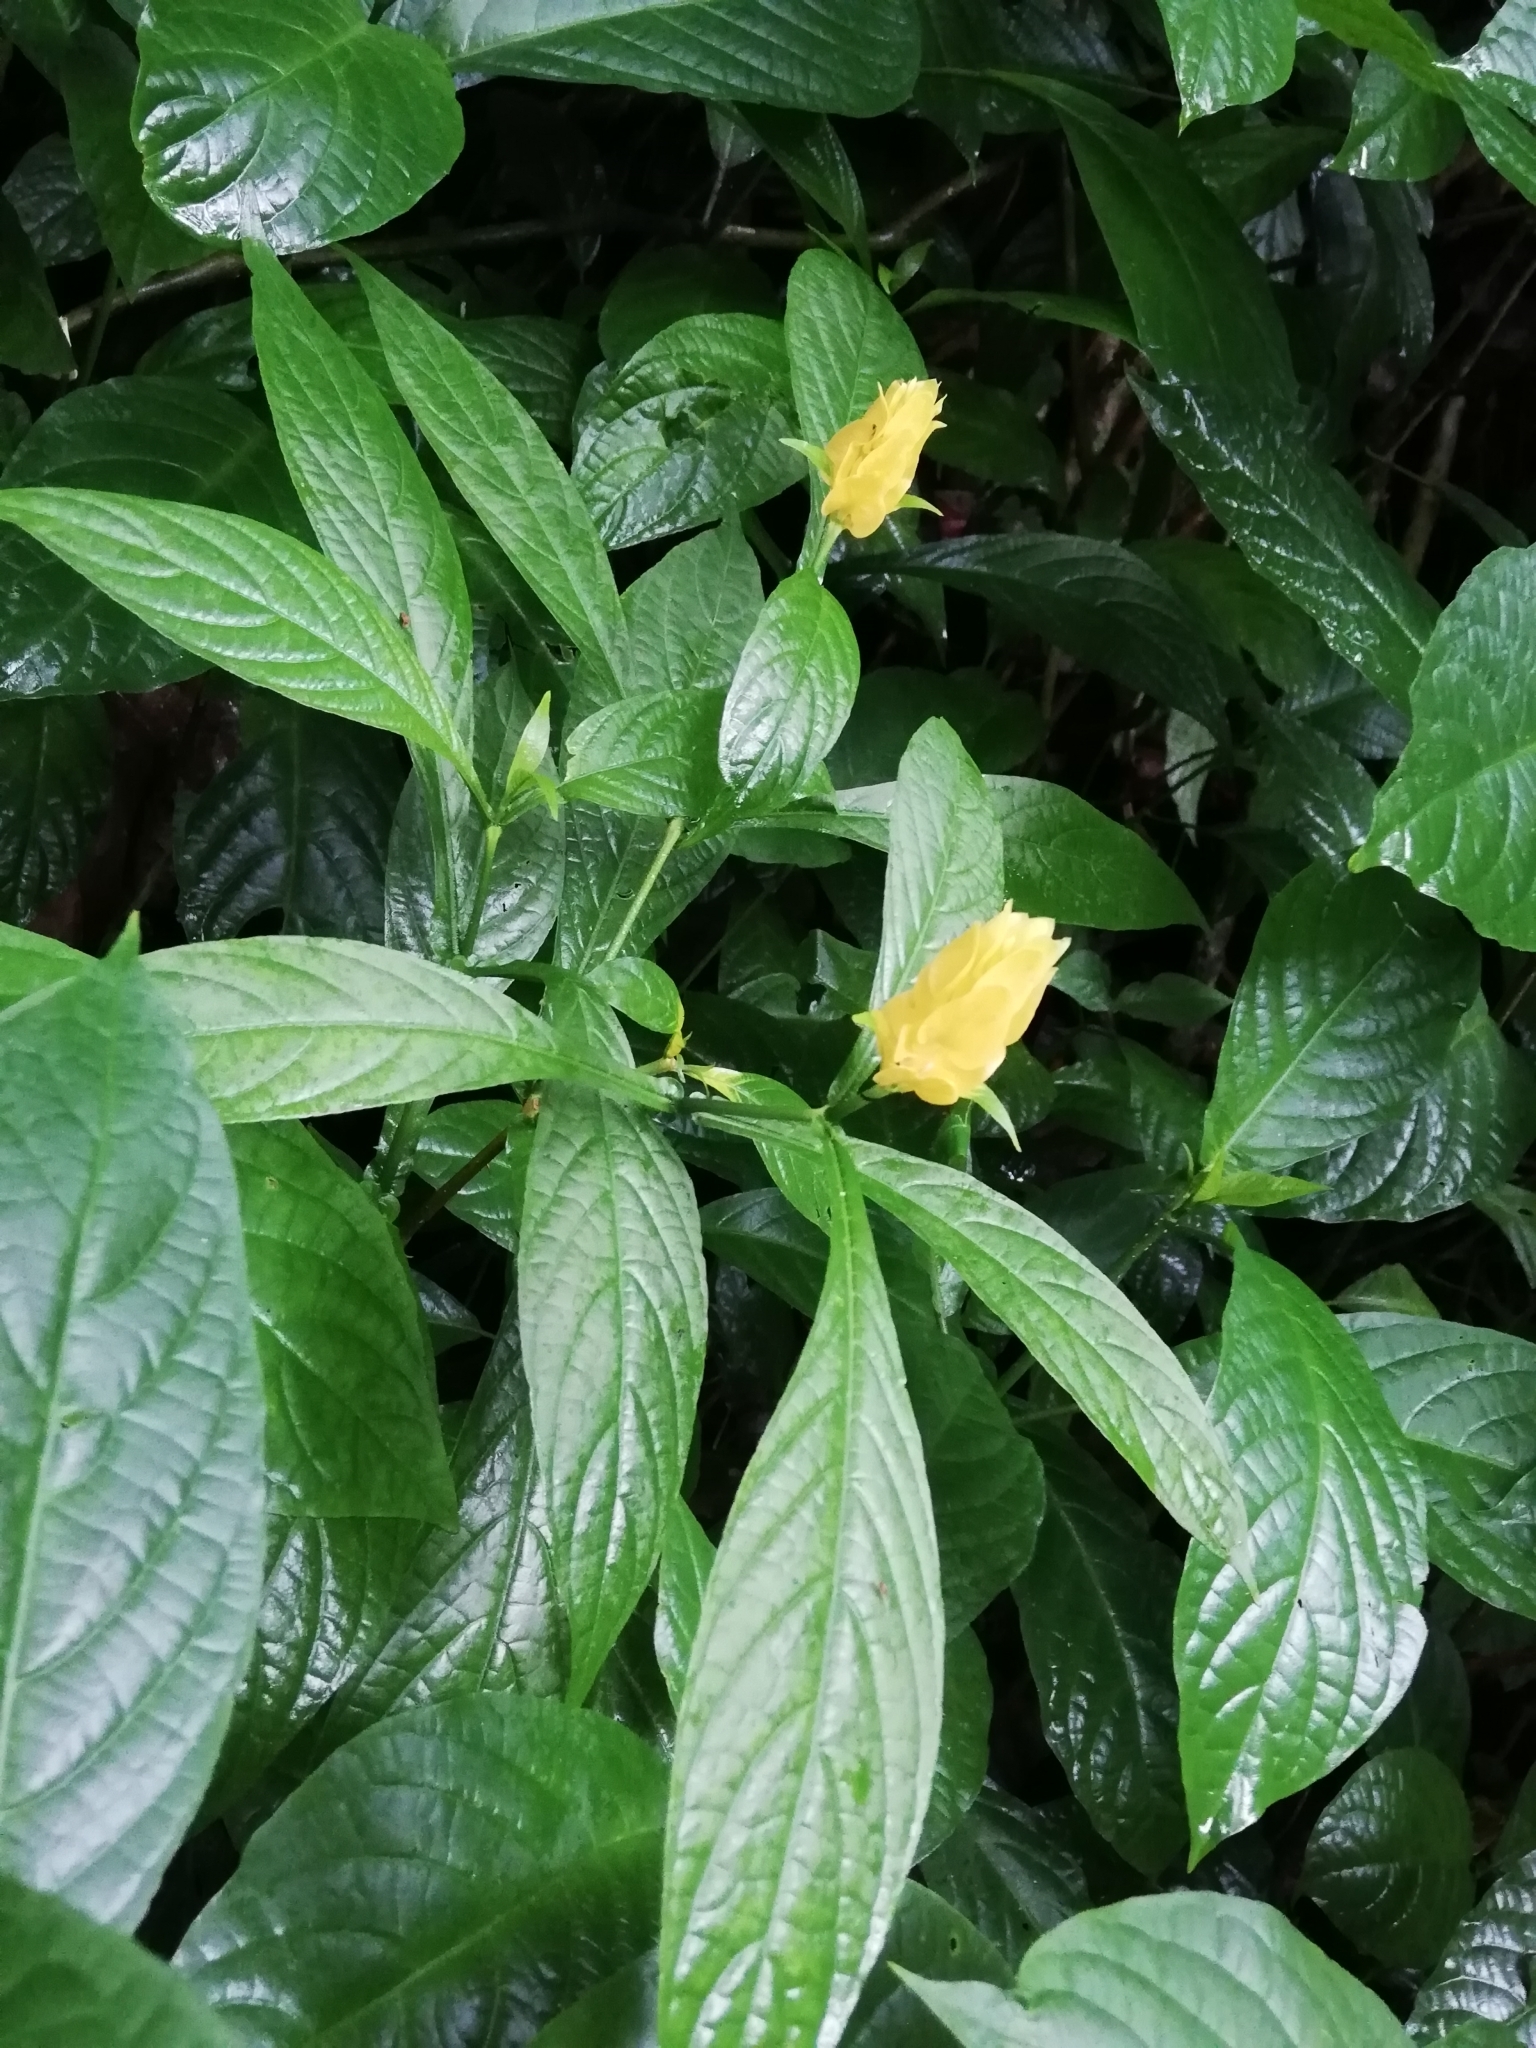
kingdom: Plantae
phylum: Tracheophyta
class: Magnoliopsida
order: Lamiales
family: Acanthaceae
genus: Pachystachys
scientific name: Pachystachys lutea
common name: Golden shrimp-plant
